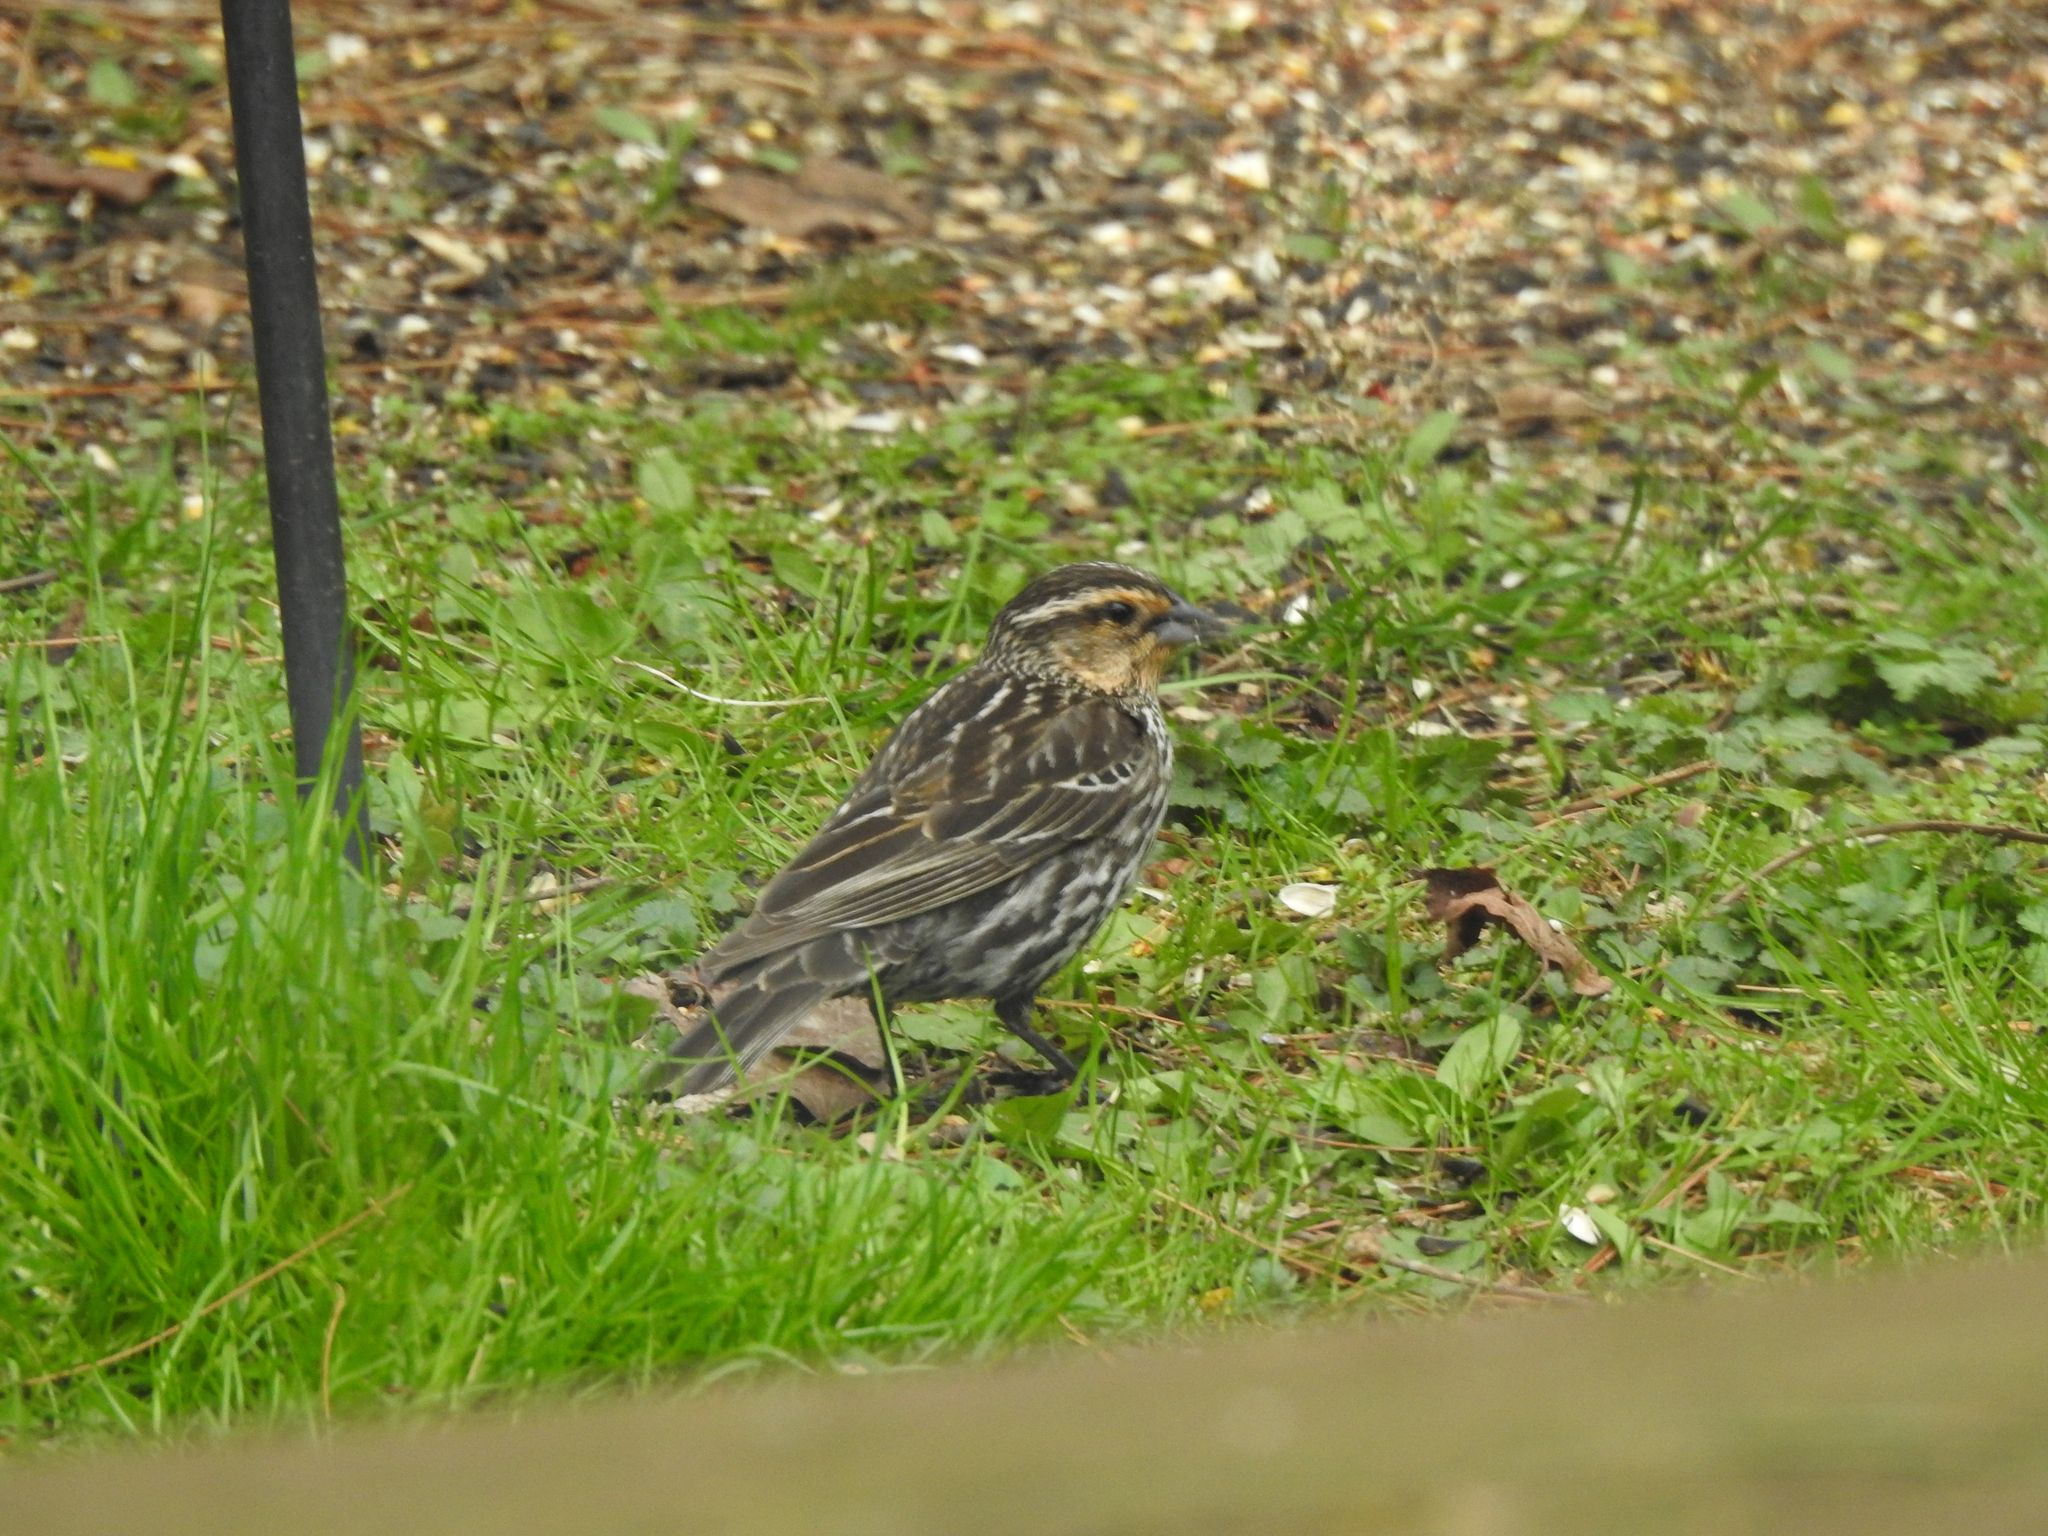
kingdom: Animalia
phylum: Chordata
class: Aves
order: Passeriformes
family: Icteridae
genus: Agelaius
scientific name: Agelaius phoeniceus
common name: Red-winged blackbird
